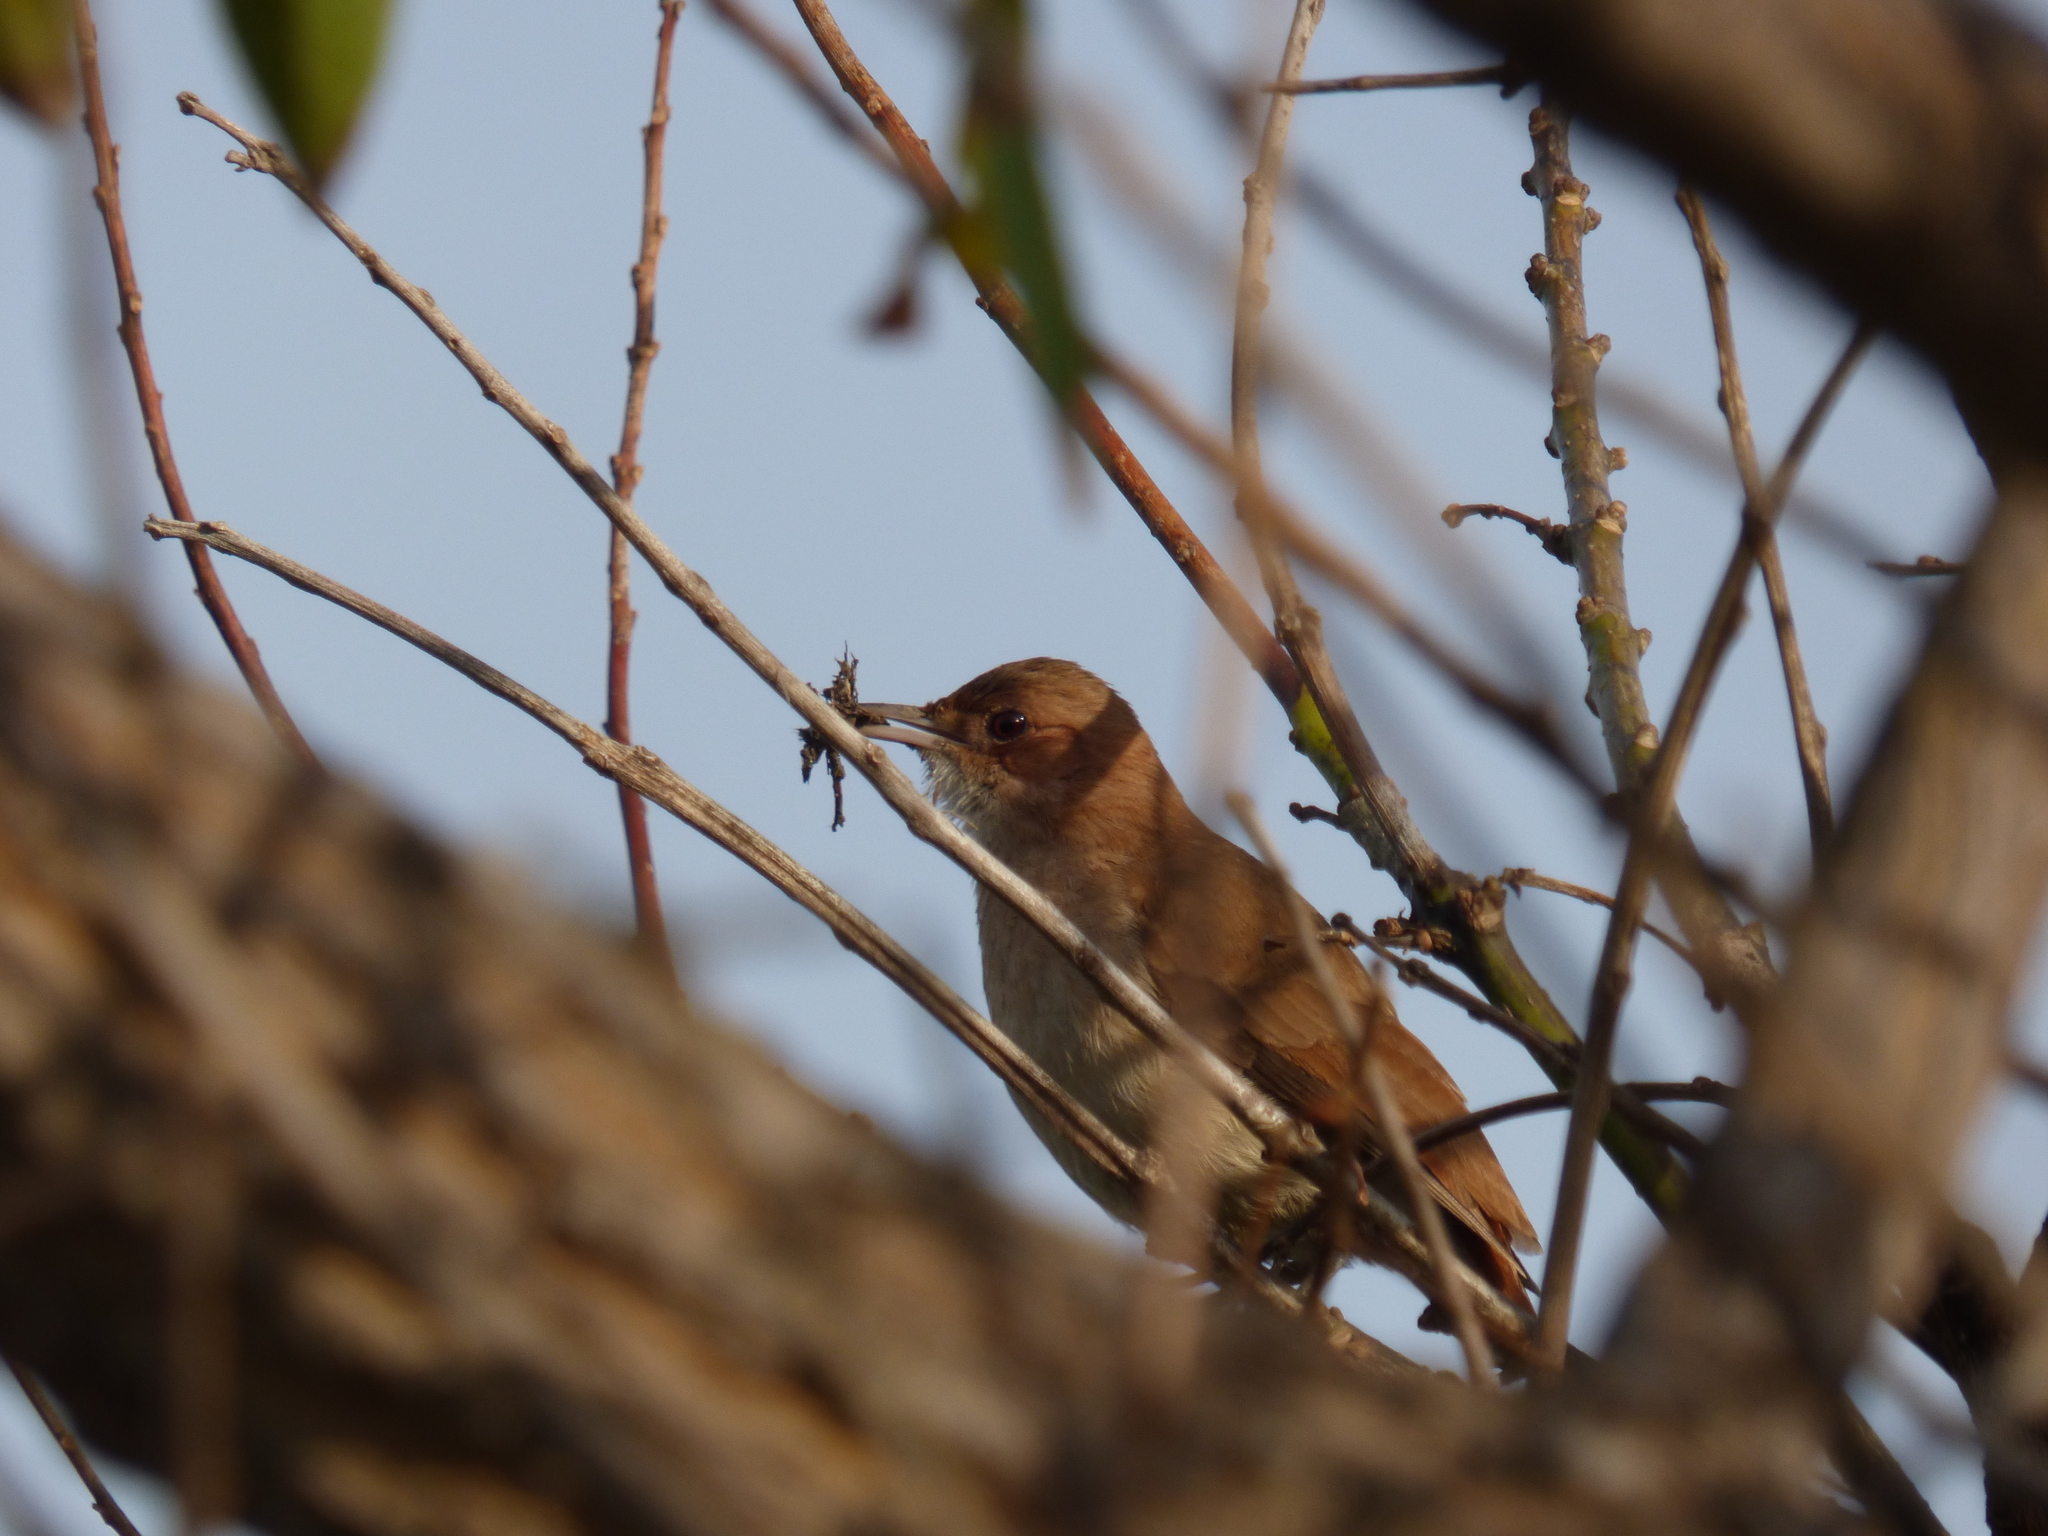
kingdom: Animalia
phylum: Chordata
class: Aves
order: Passeriformes
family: Furnariidae
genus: Furnarius
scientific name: Furnarius rufus
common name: Rufous hornero
